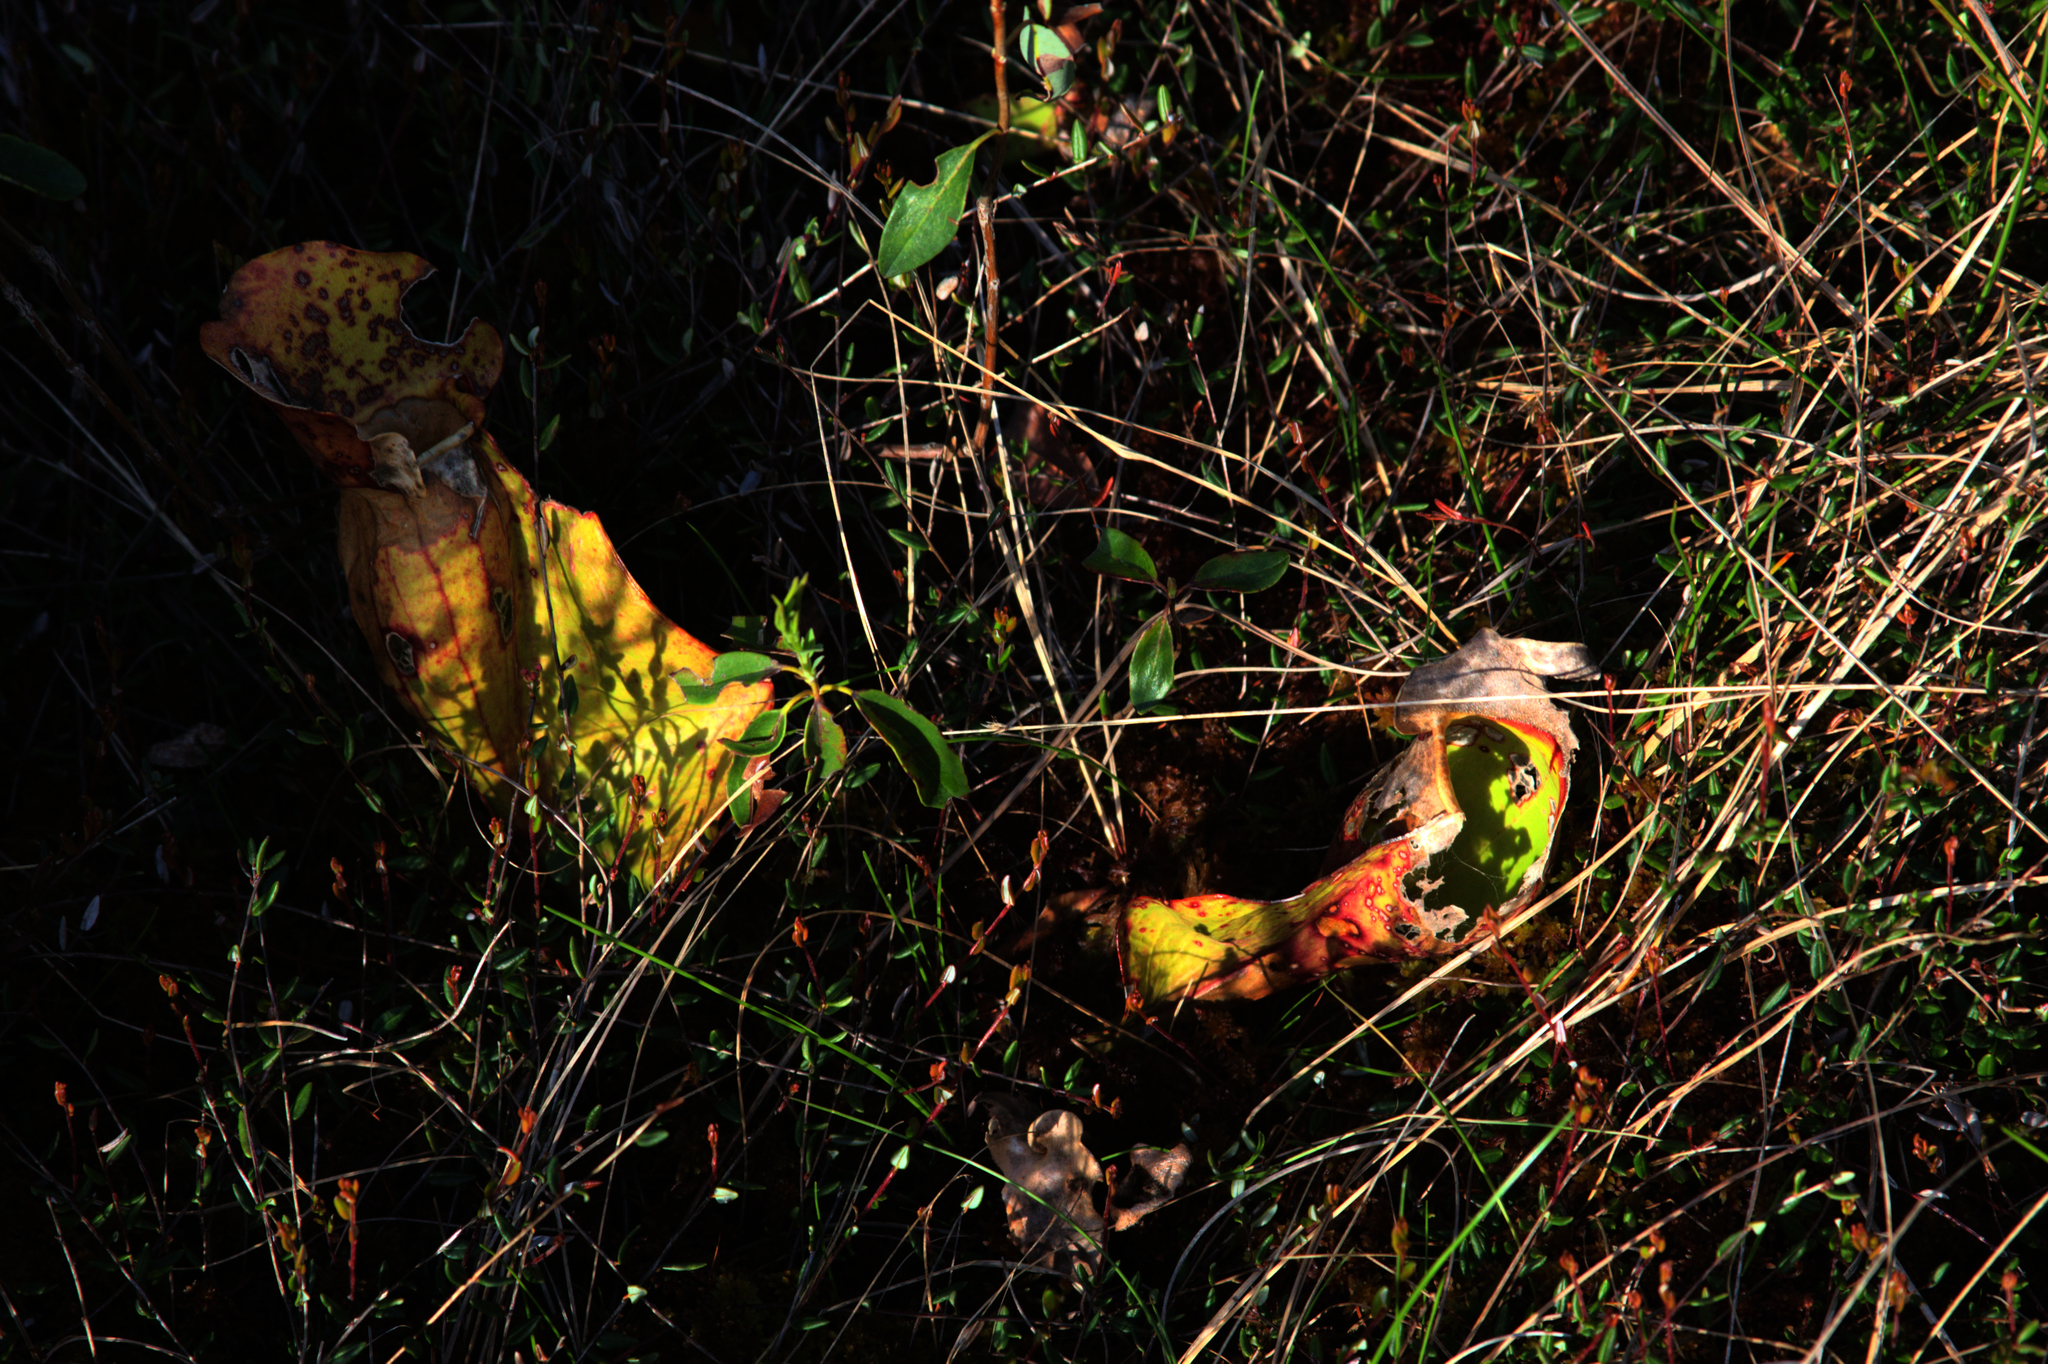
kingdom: Plantae
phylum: Tracheophyta
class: Magnoliopsida
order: Ericales
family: Sarraceniaceae
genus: Sarracenia
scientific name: Sarracenia purpurea
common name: Pitcherplant
